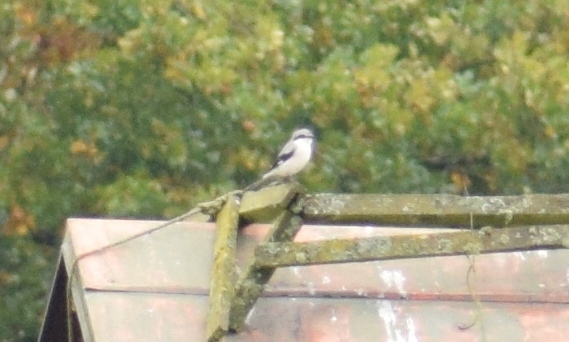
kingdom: Animalia
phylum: Chordata
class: Aves
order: Passeriformes
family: Laniidae
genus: Lanius
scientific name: Lanius excubitor
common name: Great grey shrike
